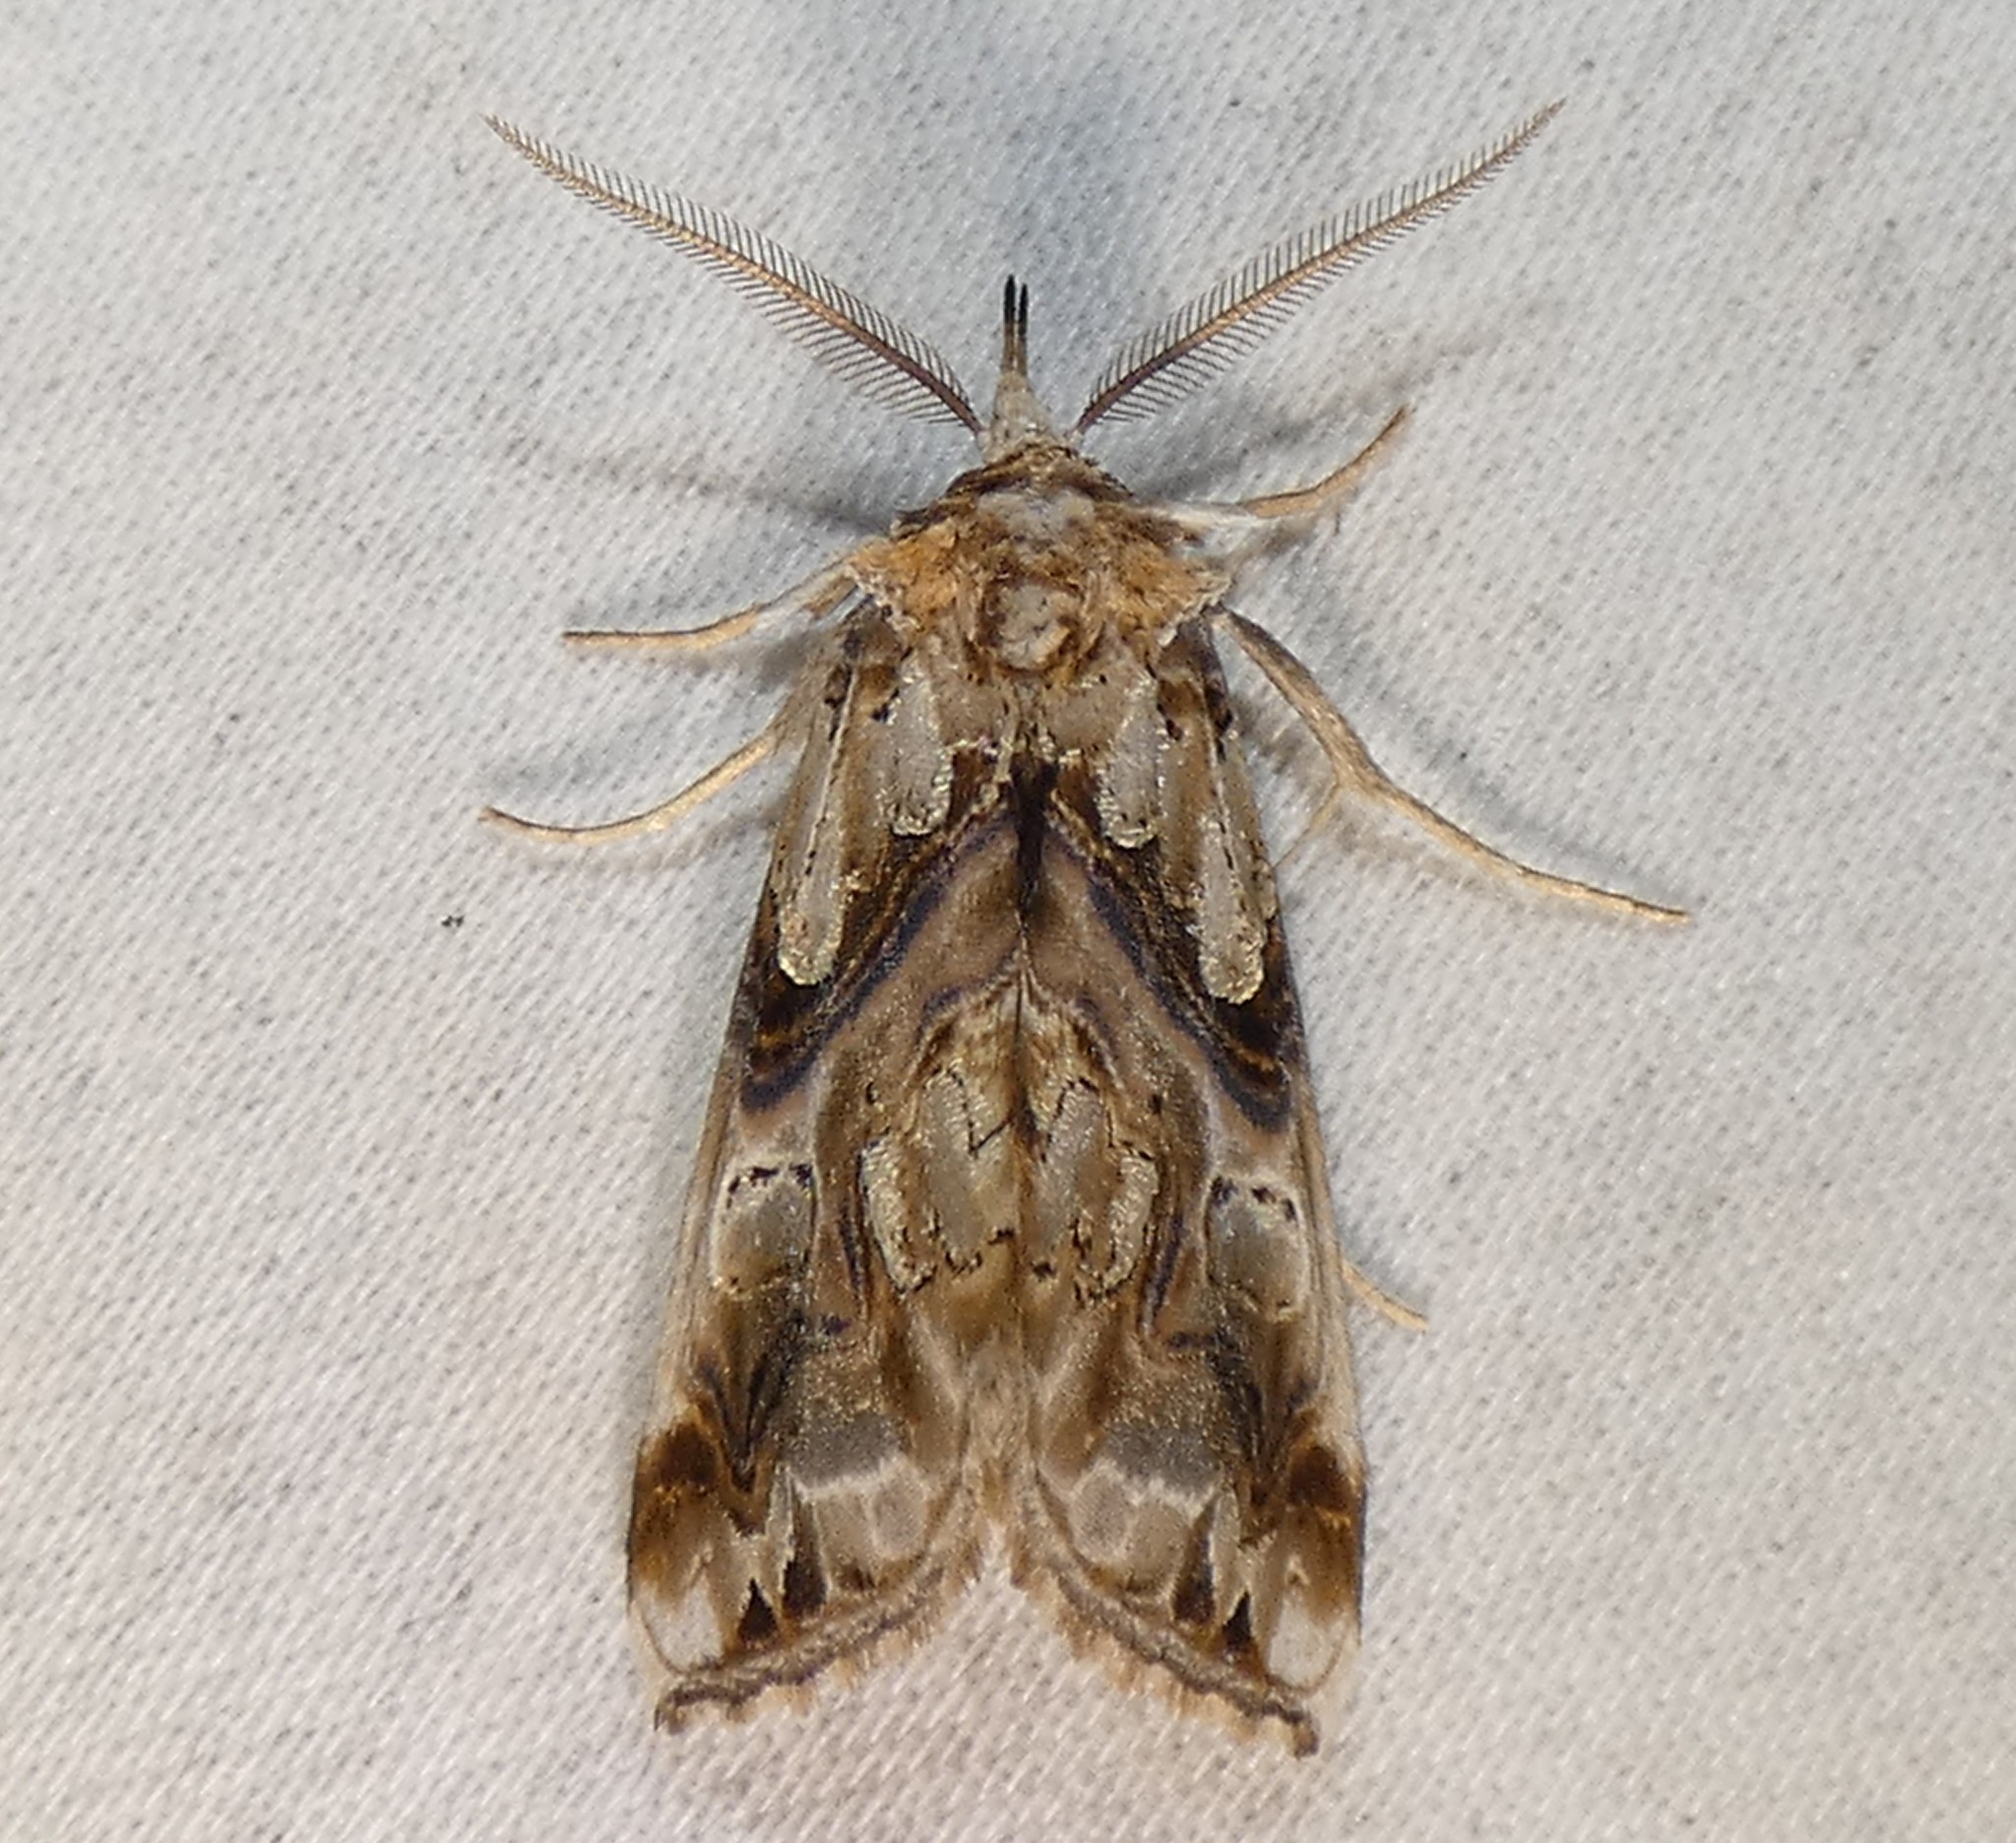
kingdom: Animalia
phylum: Arthropoda
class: Insecta
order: Lepidoptera
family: Erebidae
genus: Plusiodonta
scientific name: Plusiodonta compressipalpis
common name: Moonseed moth
